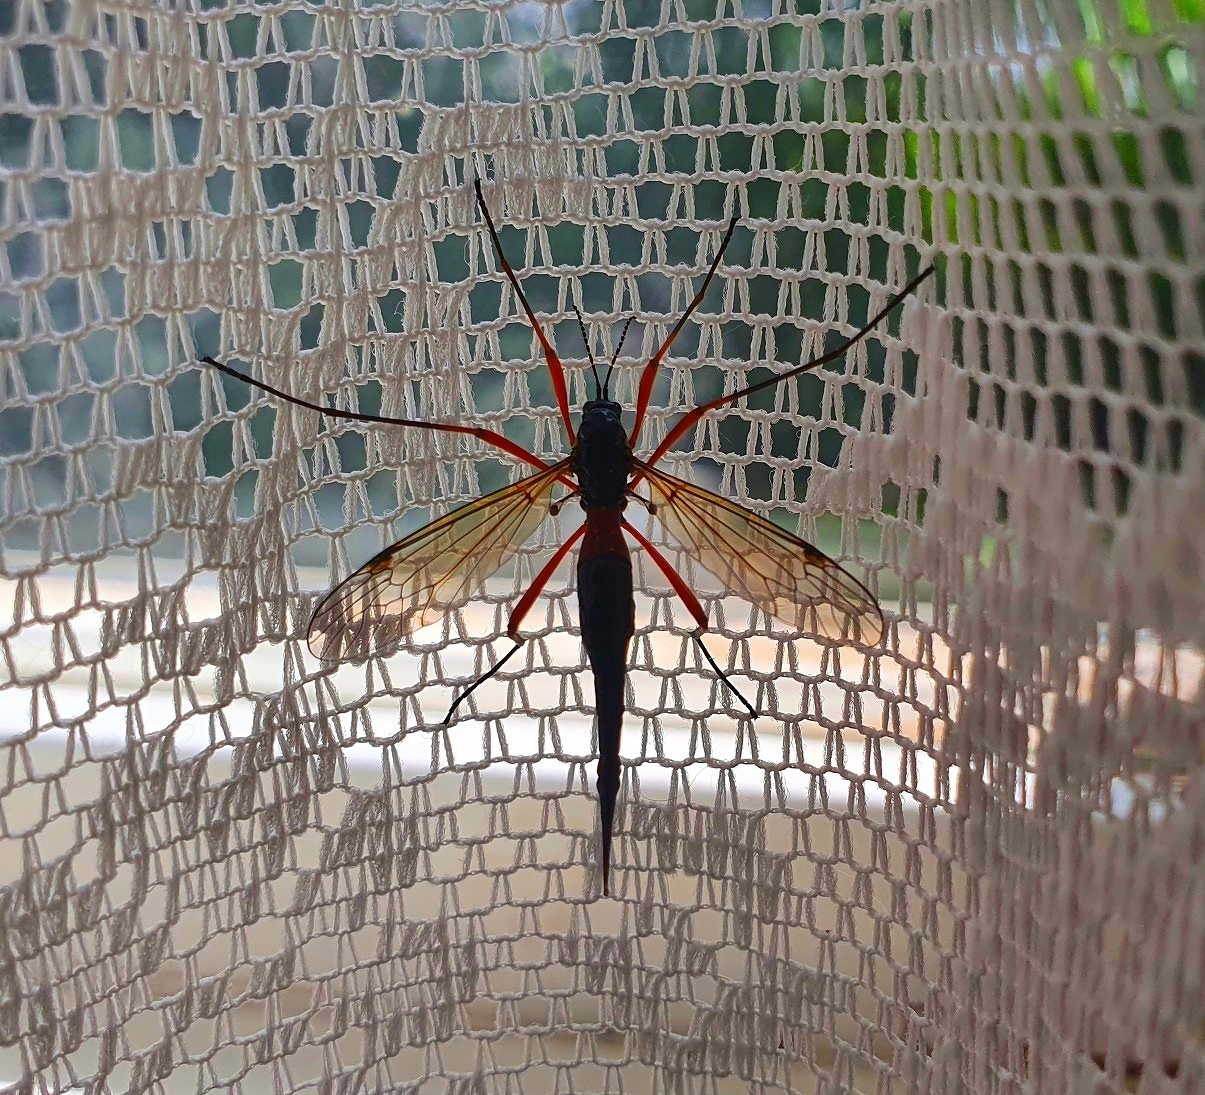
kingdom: Animalia
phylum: Arthropoda
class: Insecta
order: Diptera
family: Tipulidae
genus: Tanyptera
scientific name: Tanyptera atrata
